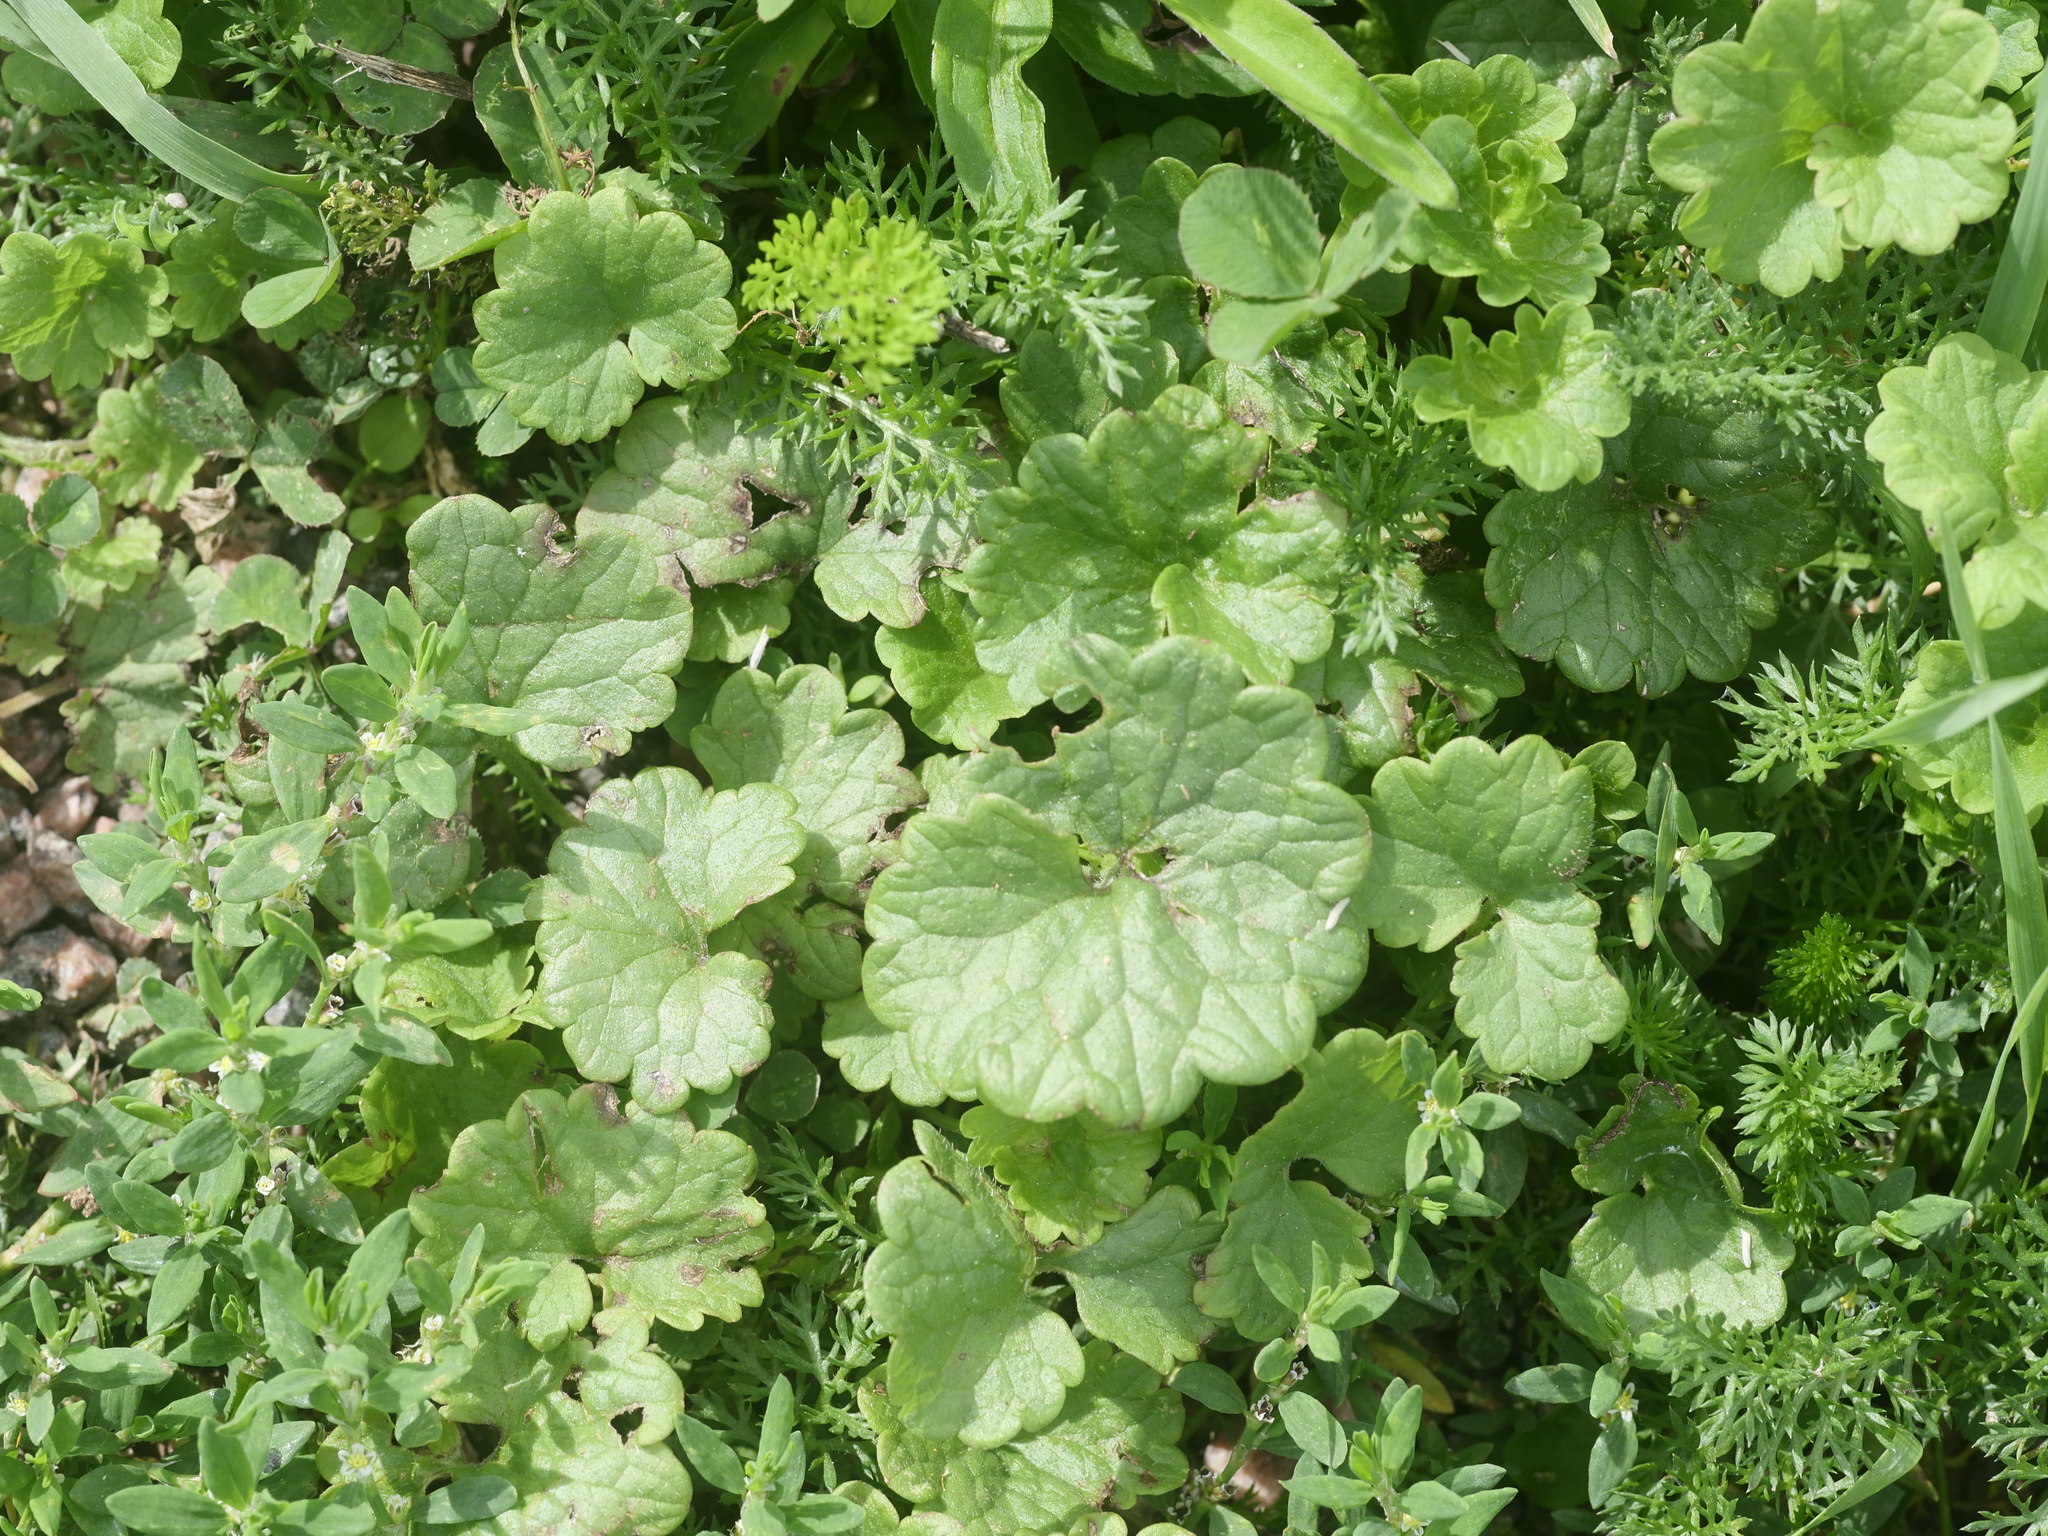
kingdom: Plantae
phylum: Tracheophyta
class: Magnoliopsida
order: Lamiales
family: Lamiaceae
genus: Glechoma
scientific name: Glechoma hederacea
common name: Ground ivy
